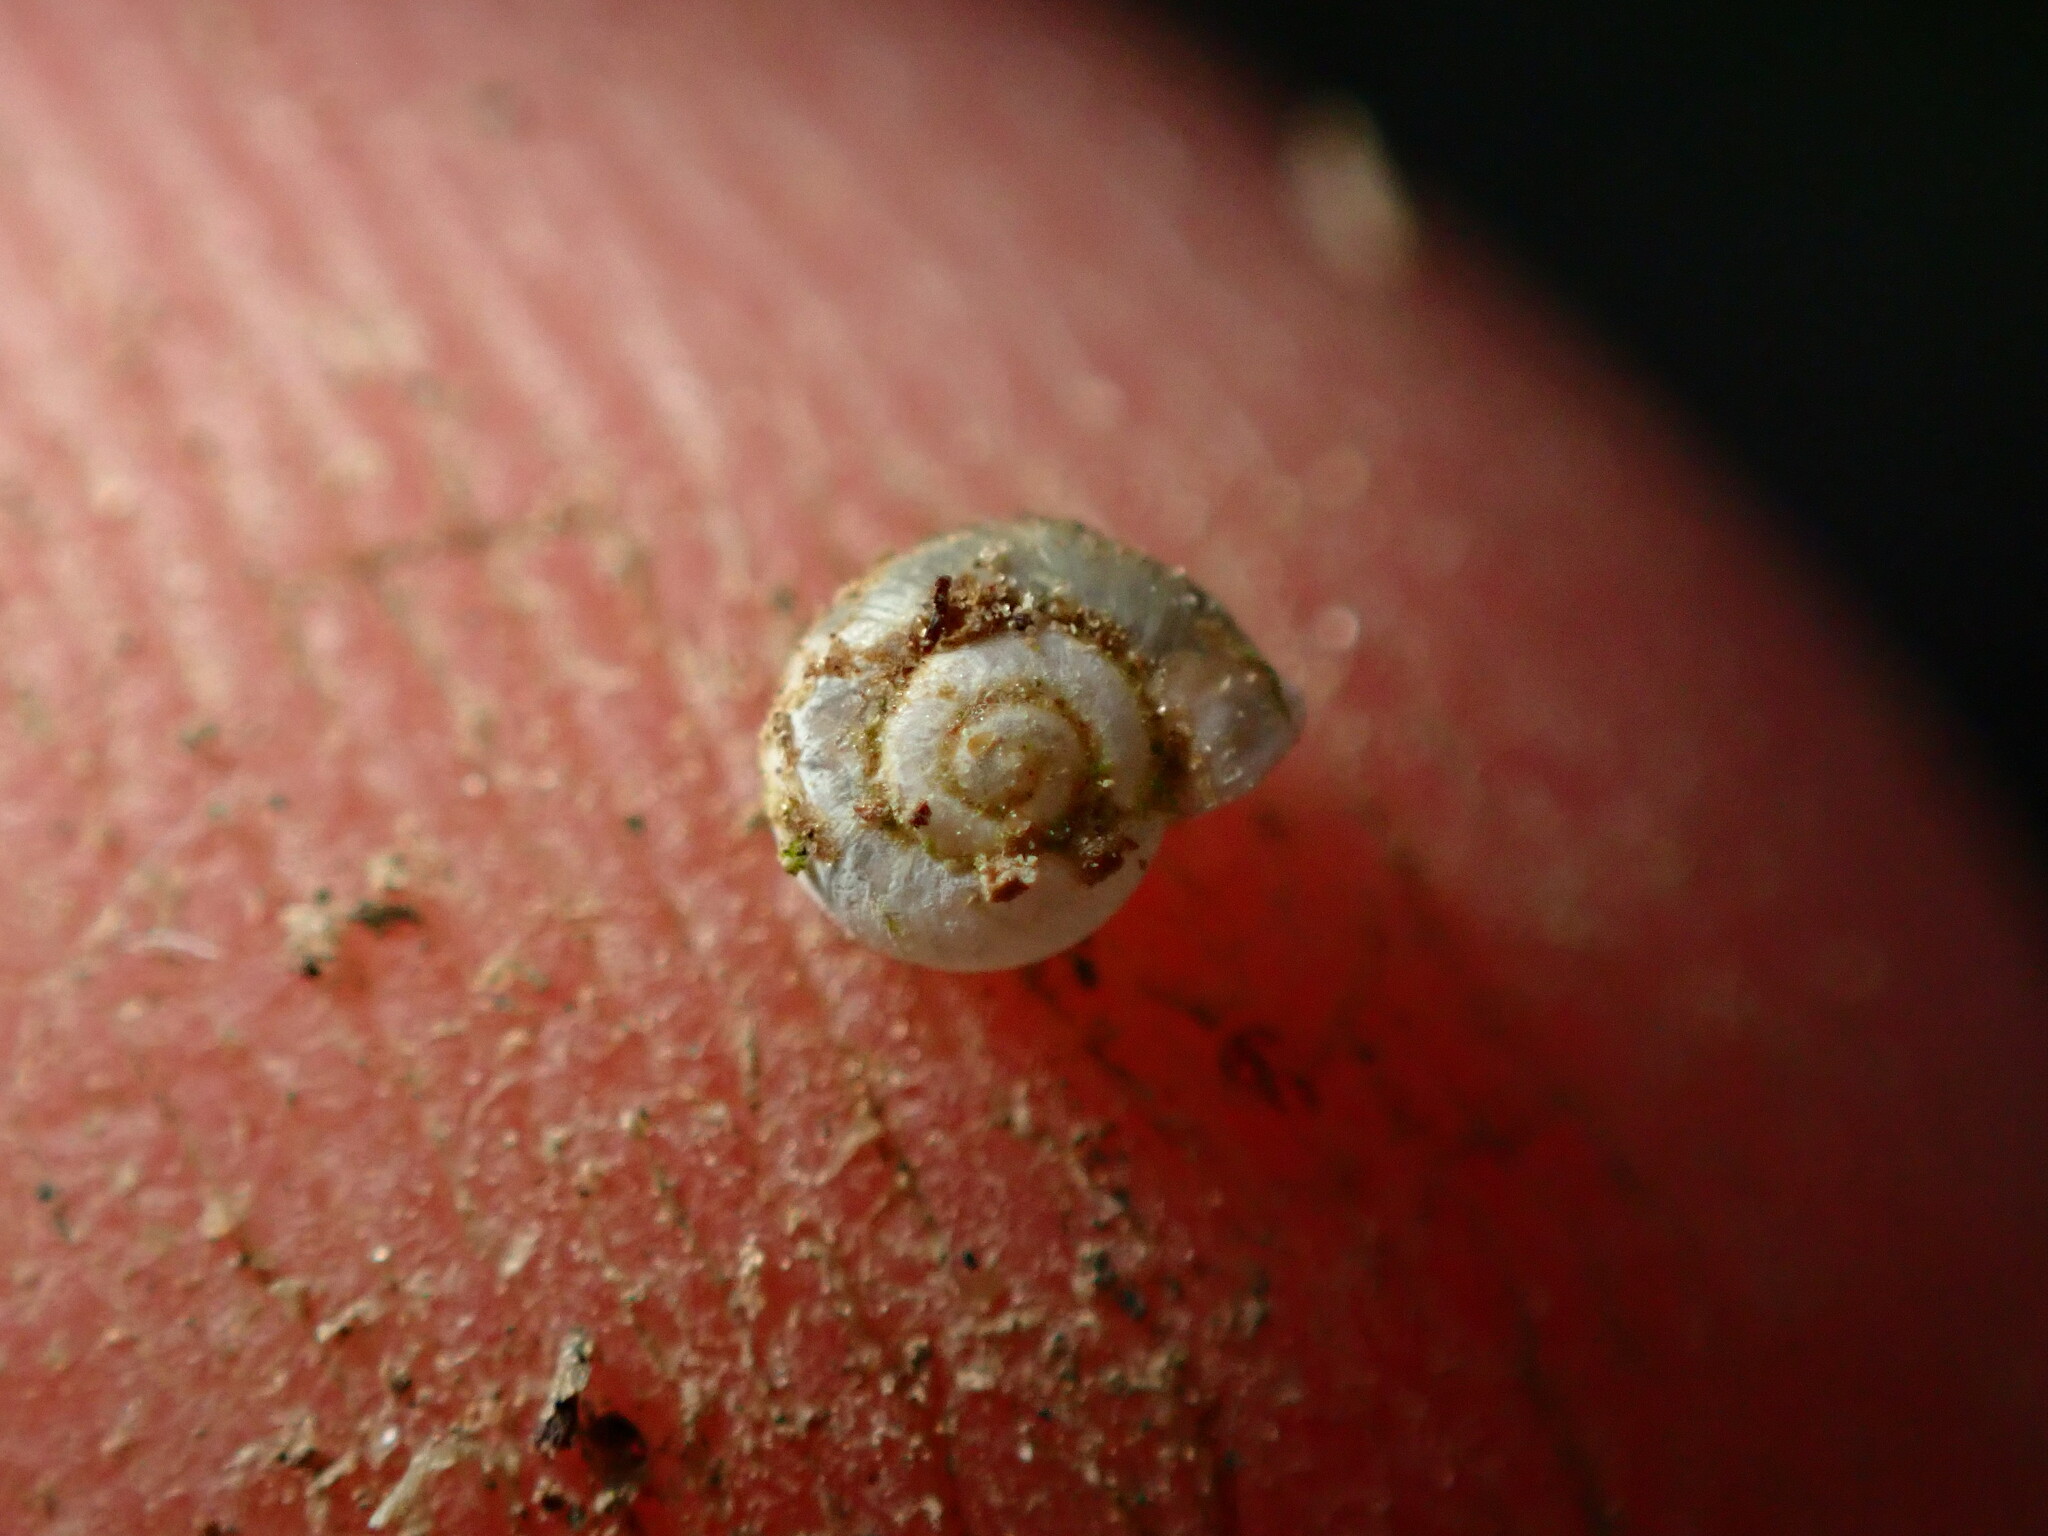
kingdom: Animalia
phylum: Mollusca
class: Gastropoda
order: Stylommatophora
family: Valloniidae
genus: Vallonia
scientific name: Vallonia pulchella
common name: Smooth grass snail
